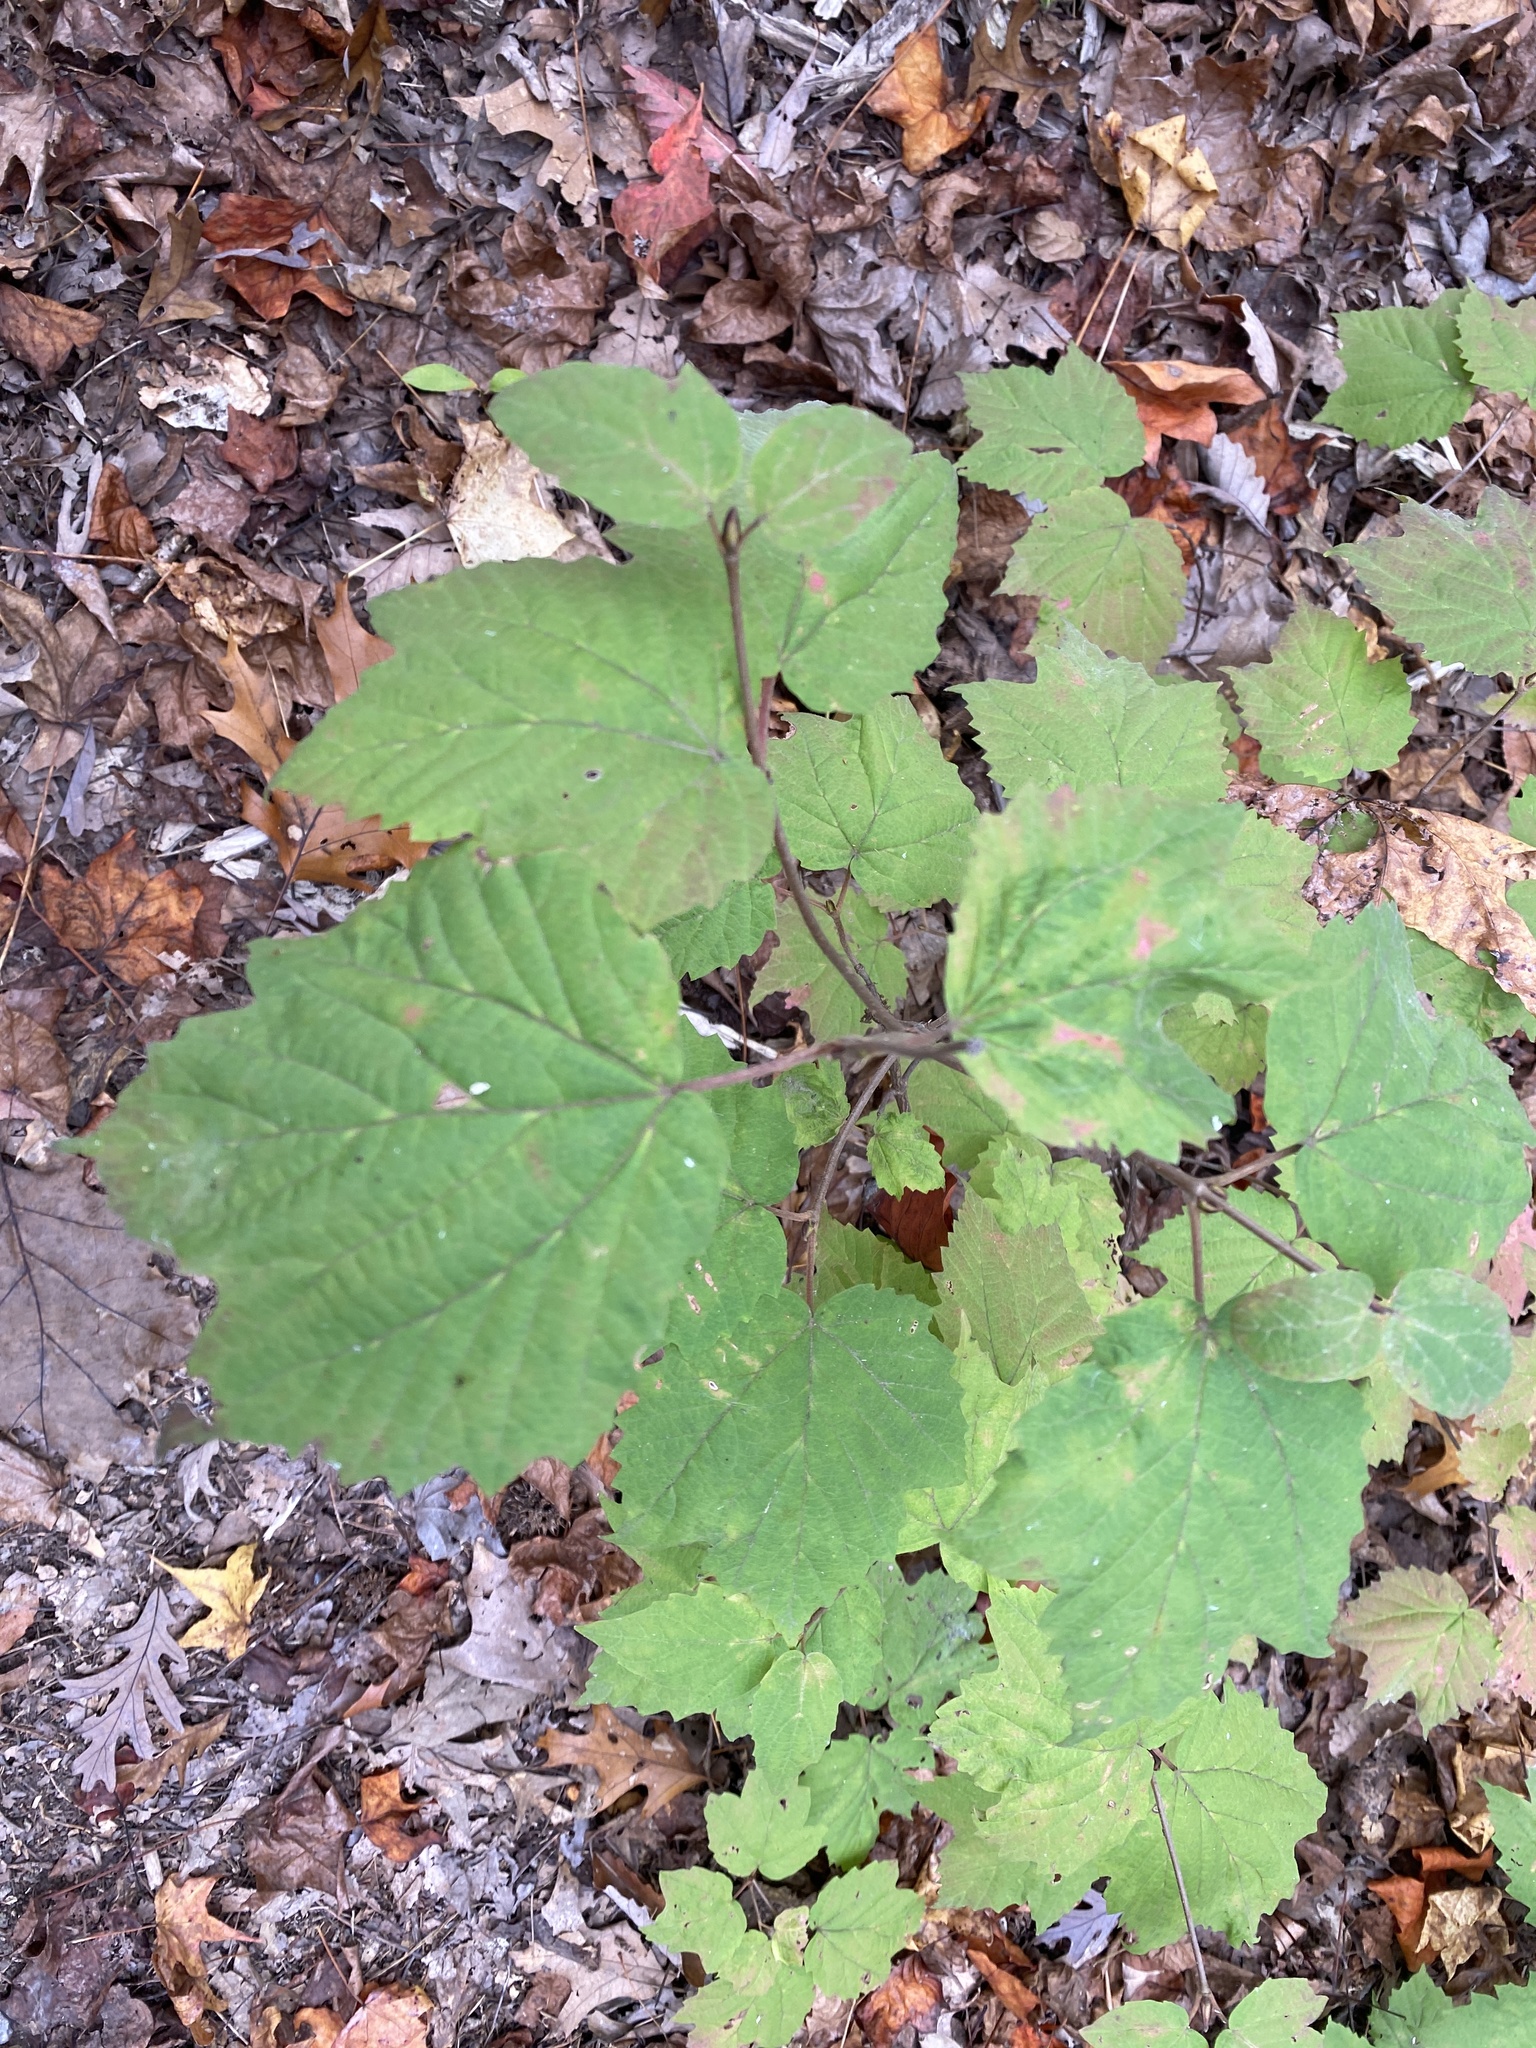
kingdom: Plantae
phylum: Tracheophyta
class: Magnoliopsida
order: Dipsacales
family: Viburnaceae
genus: Viburnum
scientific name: Viburnum acerifolium
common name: Dockmackie
